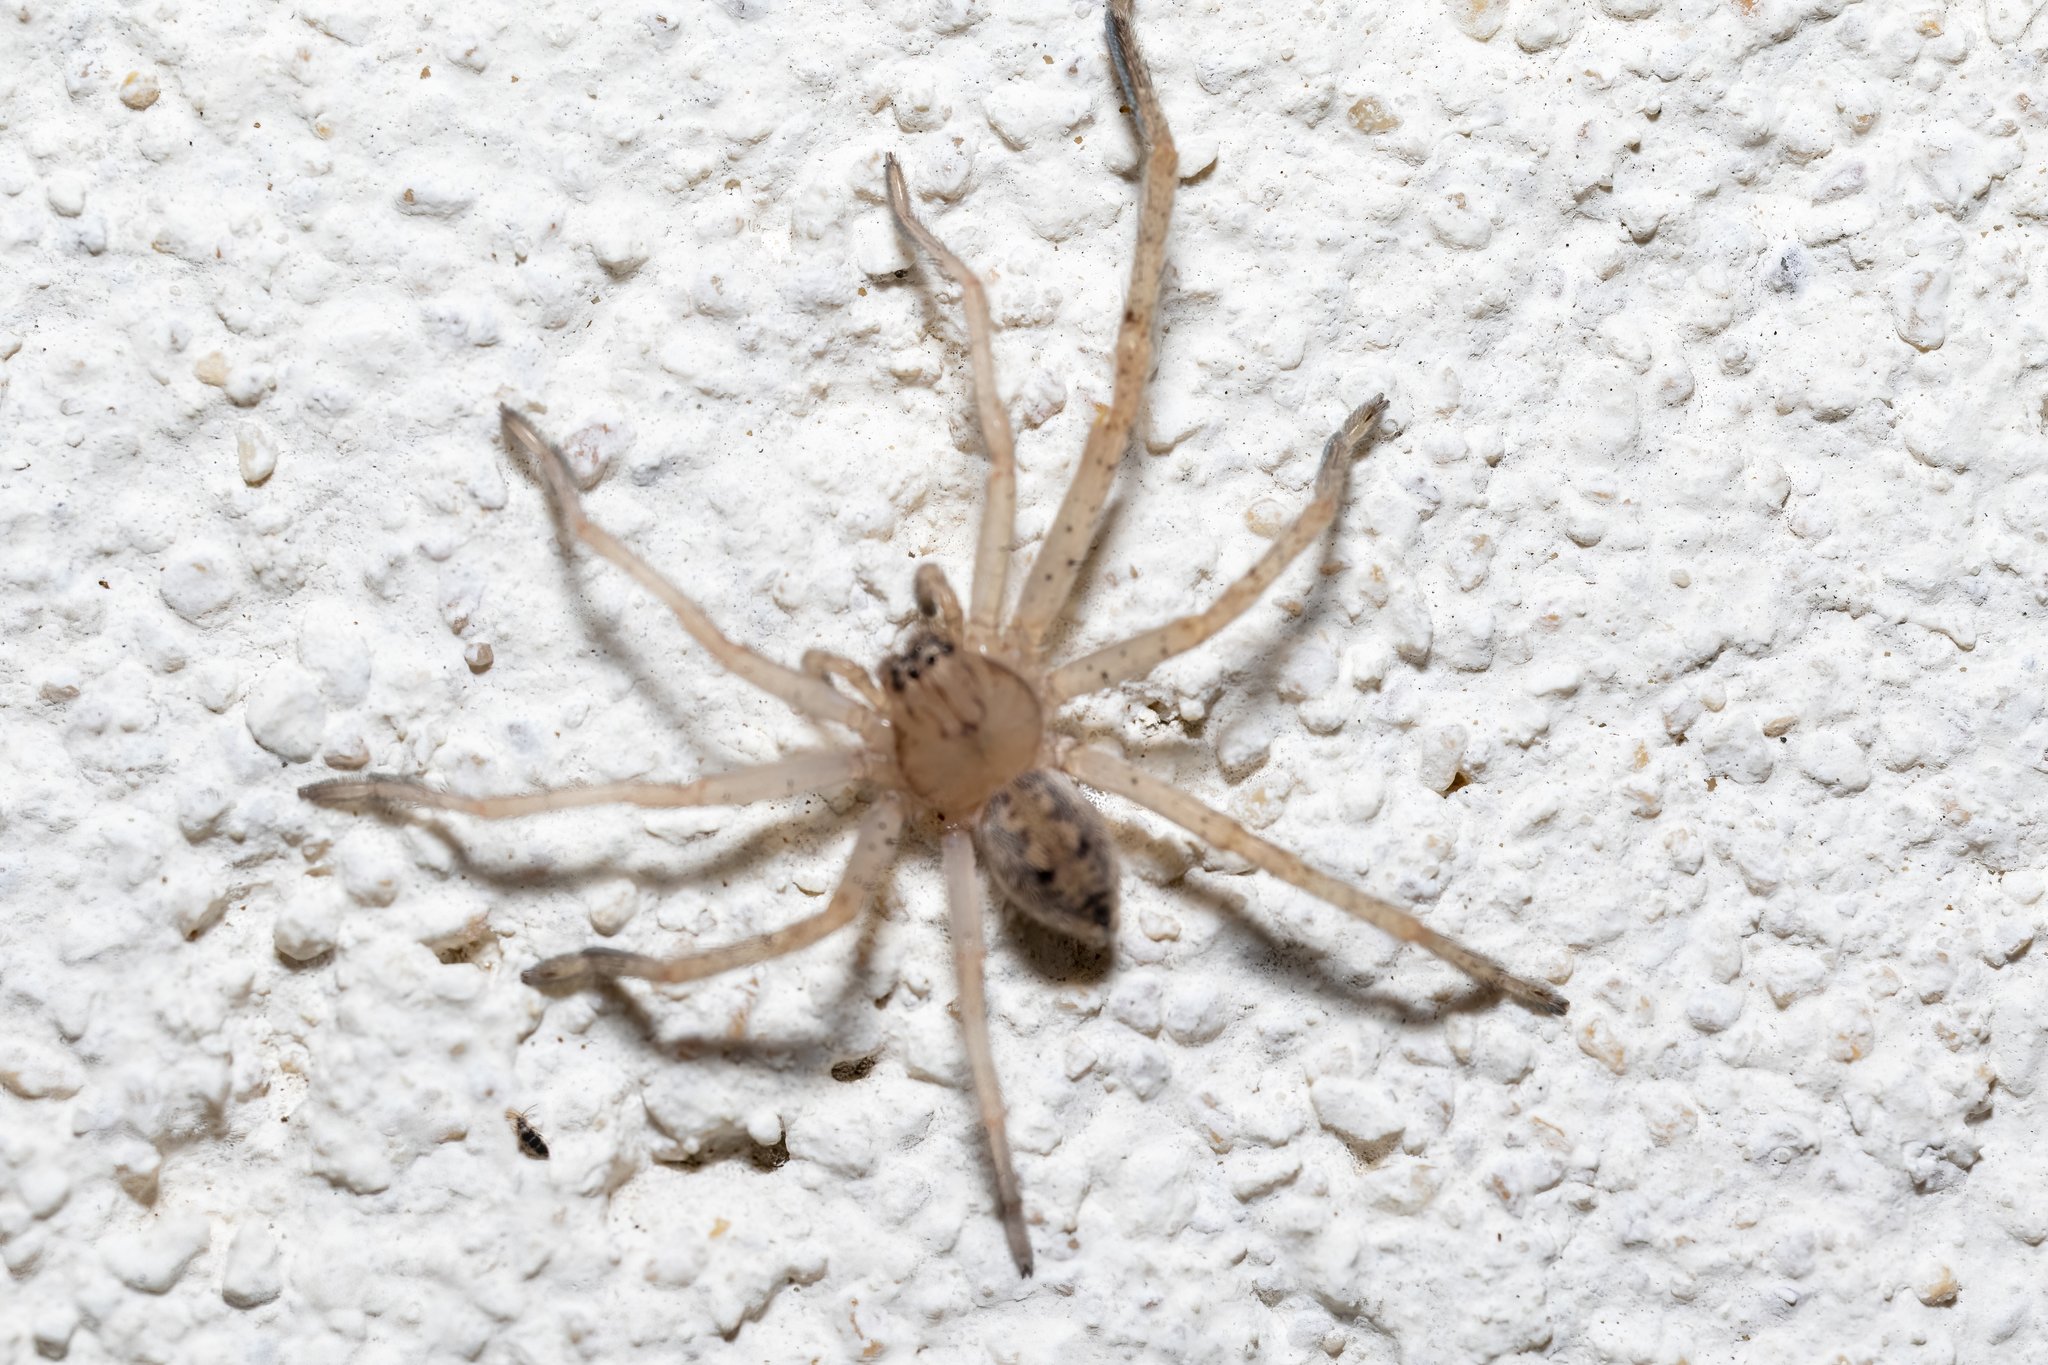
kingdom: Animalia
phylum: Arthropoda
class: Arachnida
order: Araneae
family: Sparassidae
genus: Olios
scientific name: Olios argelasius
